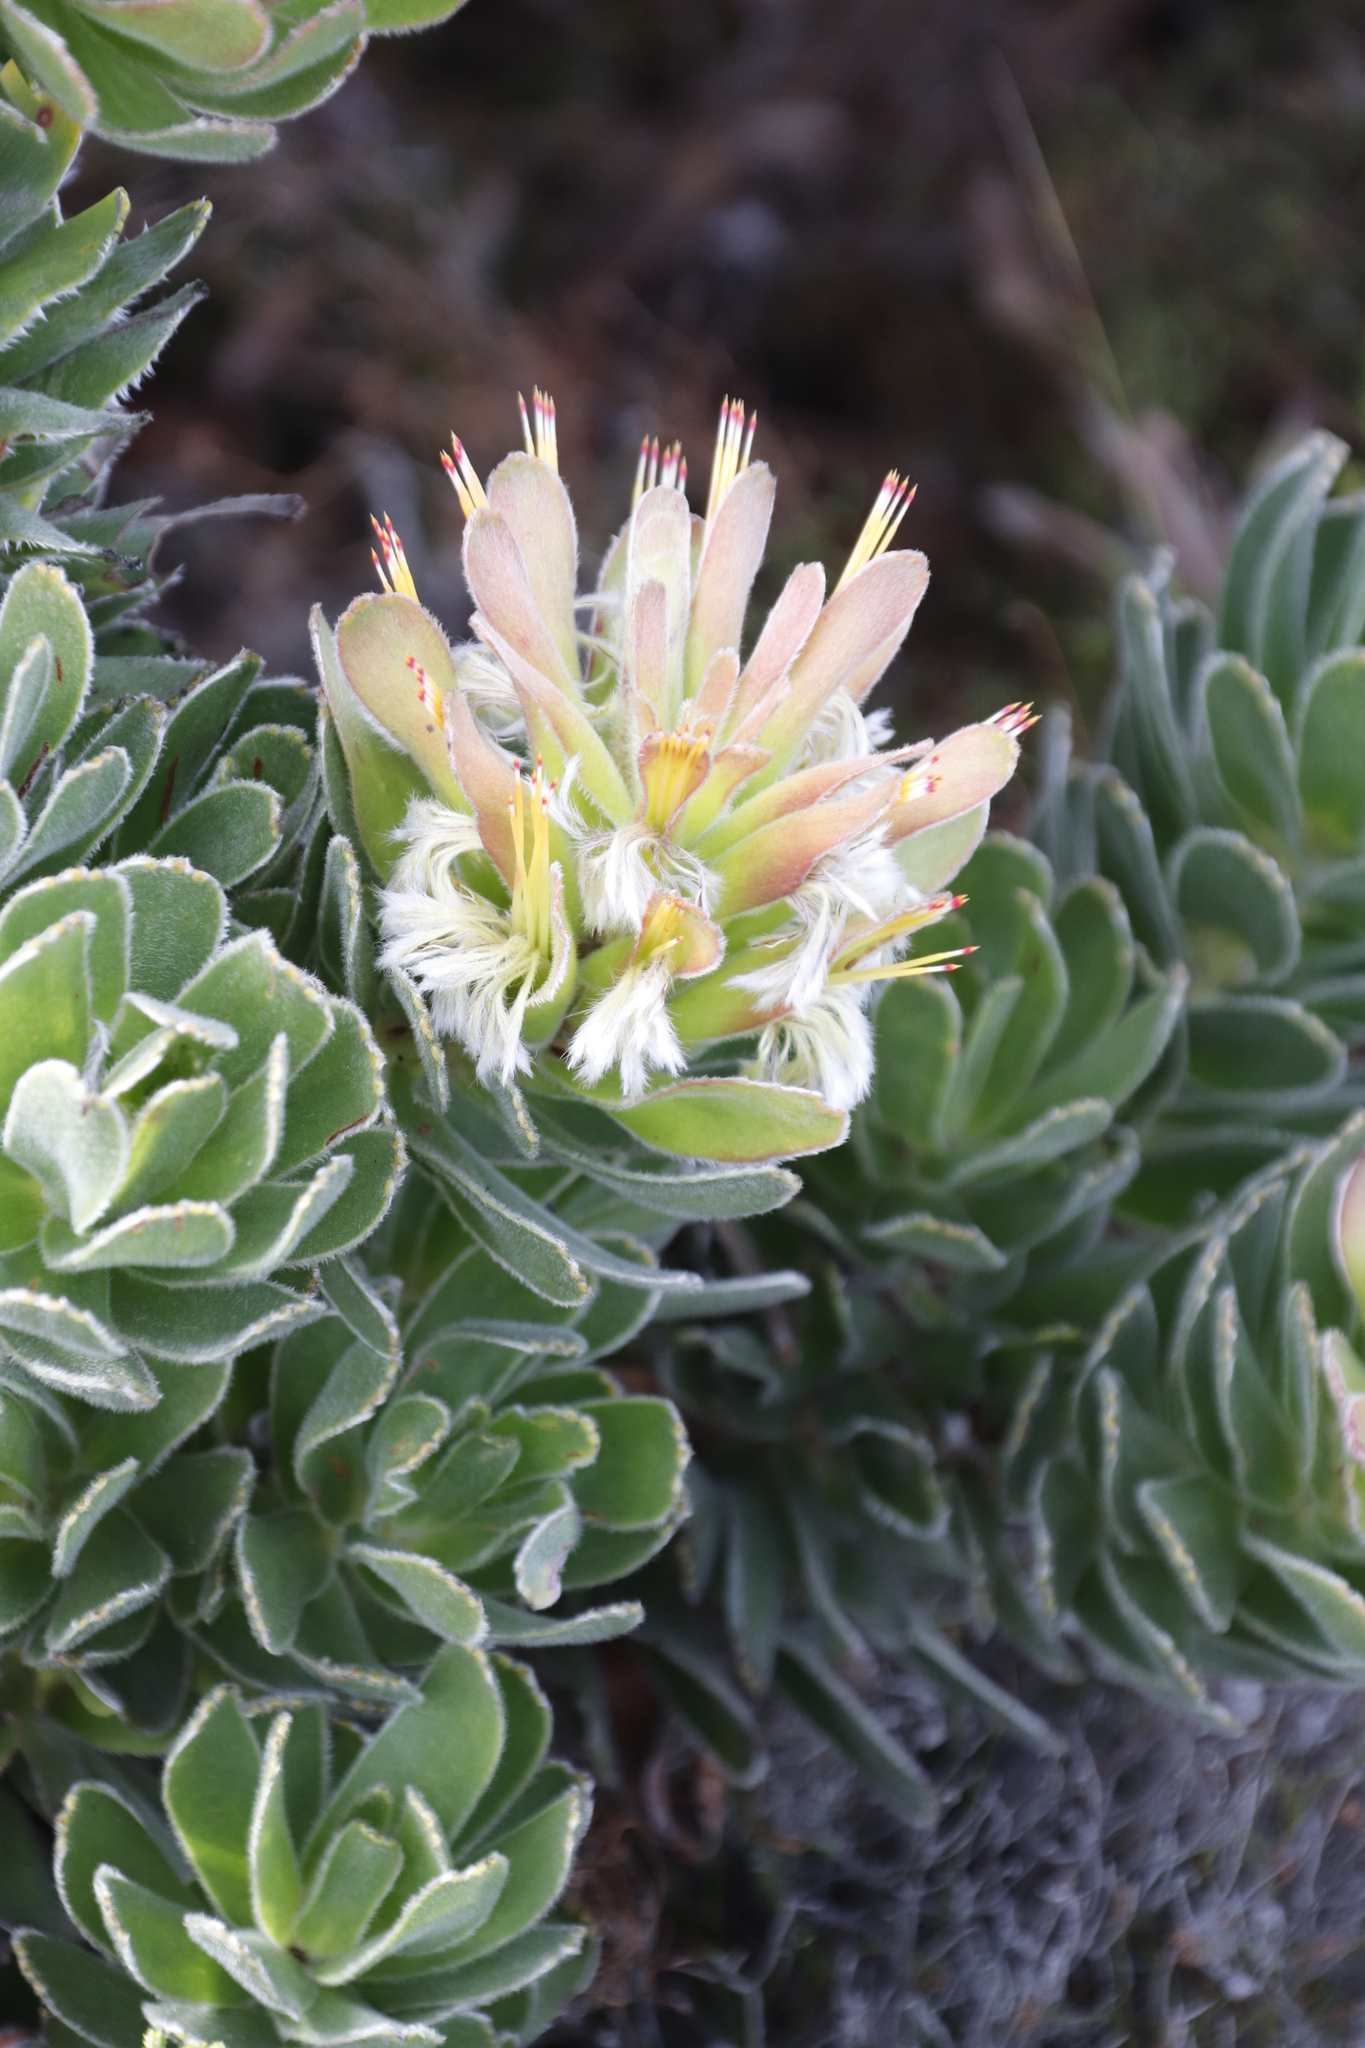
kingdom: Plantae
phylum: Tracheophyta
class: Magnoliopsida
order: Proteales
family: Proteaceae
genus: Mimetes
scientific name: Mimetes fimbriifolius
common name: Fringed bottlebrush
